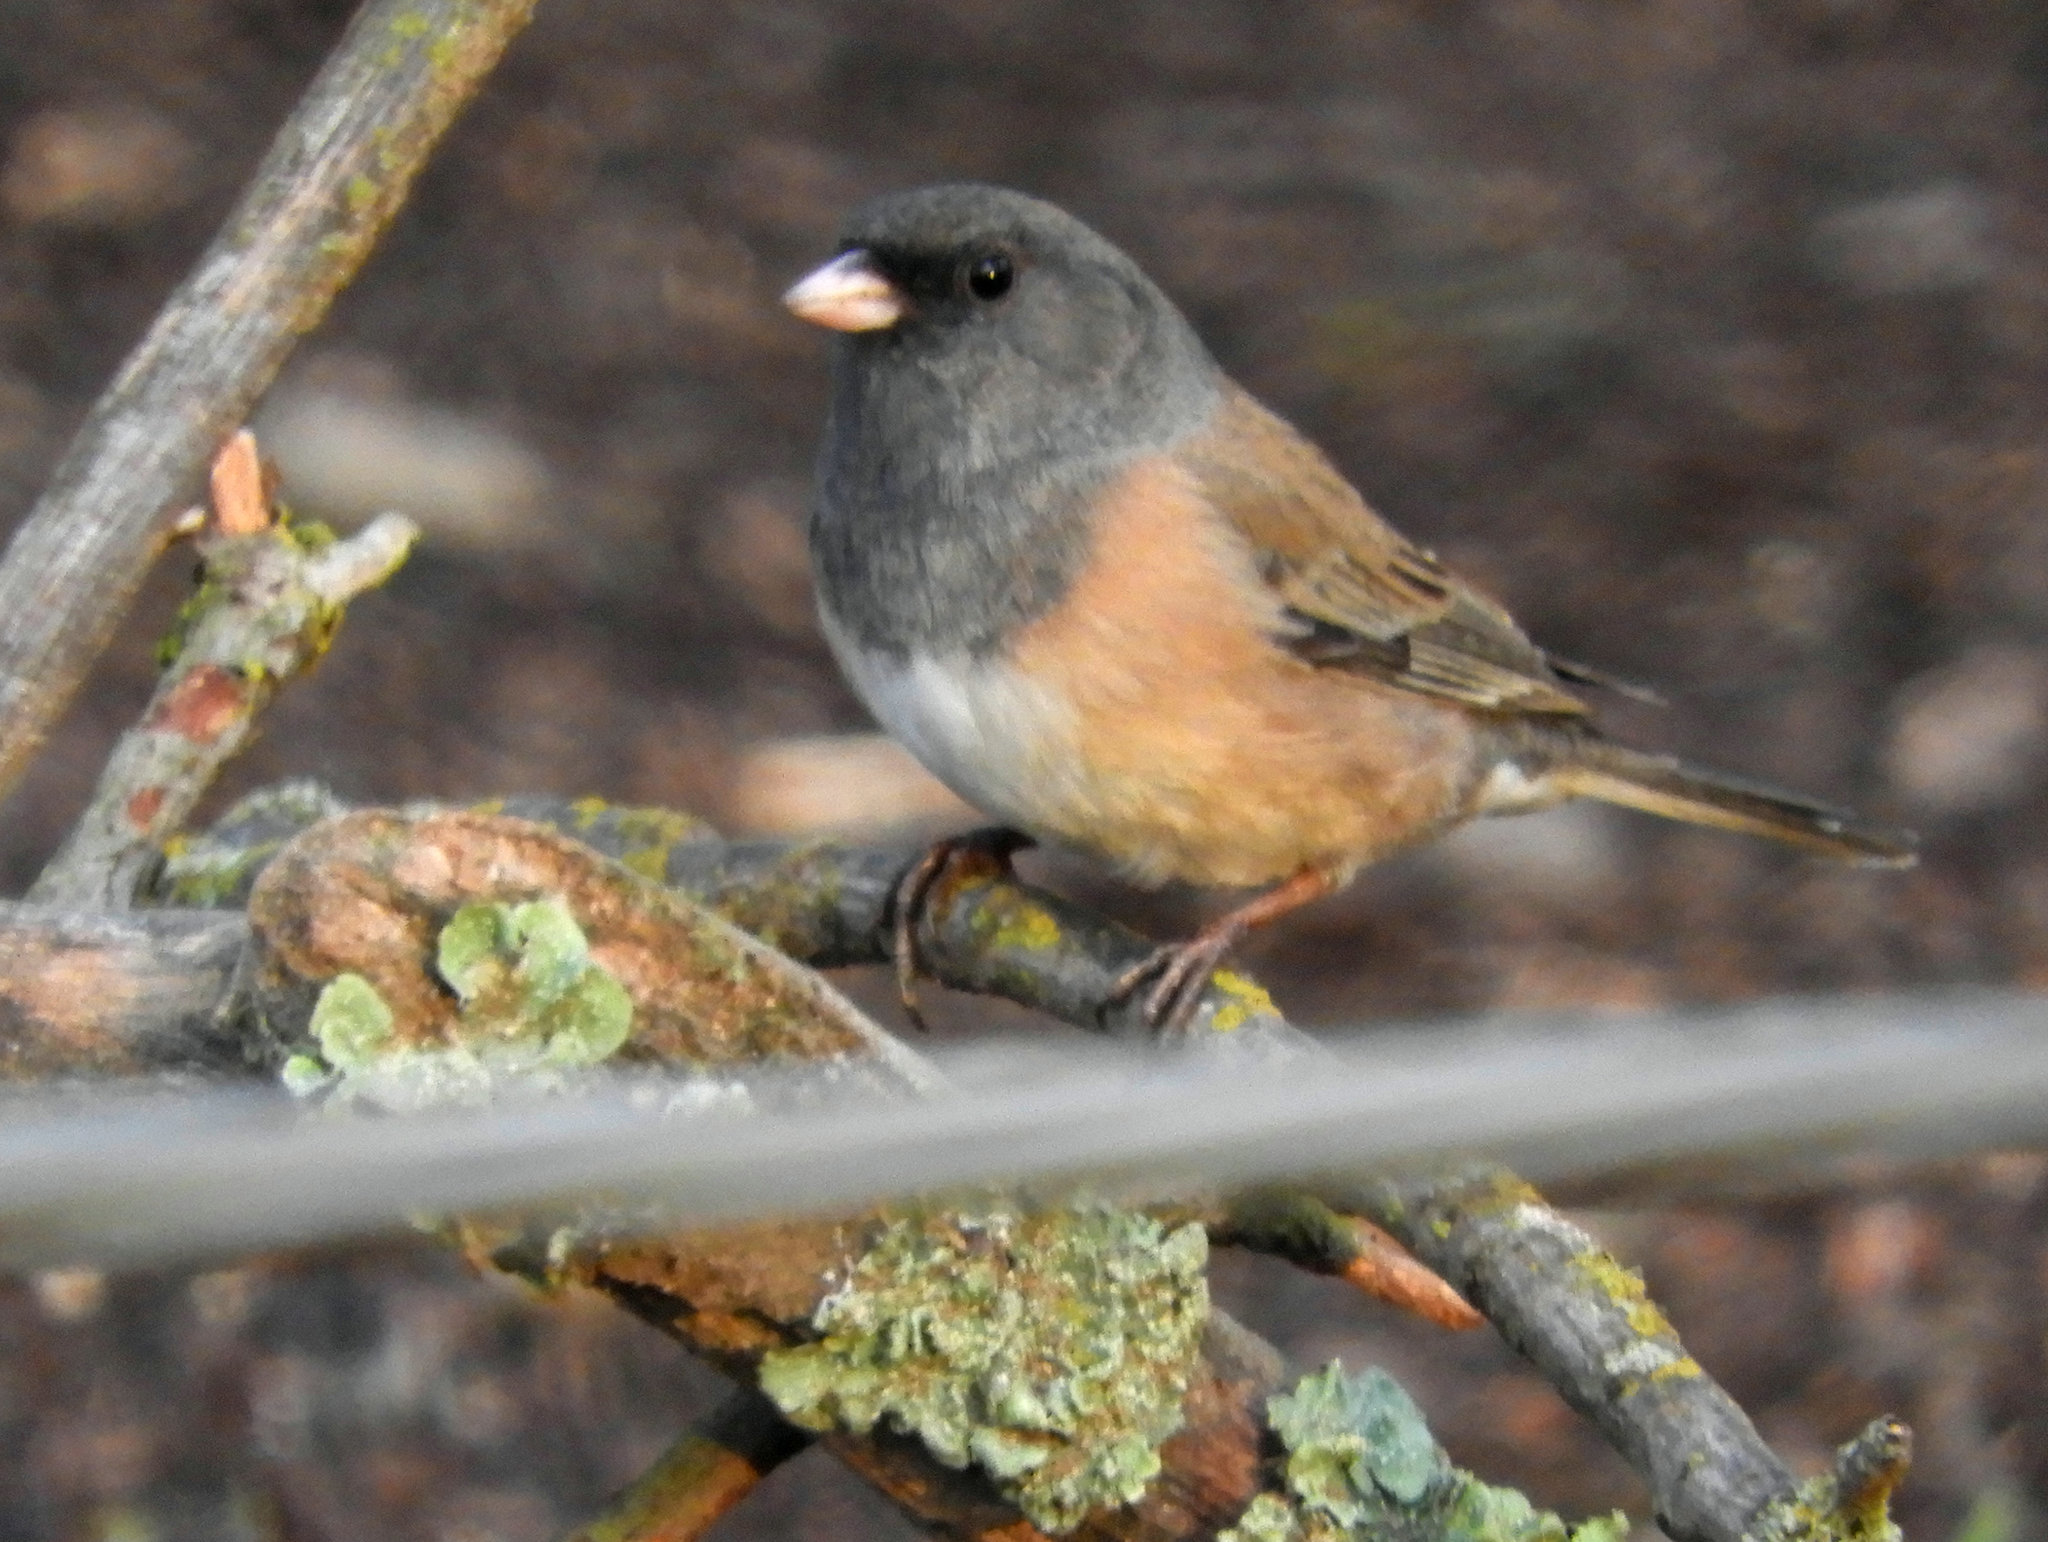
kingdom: Animalia
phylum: Chordata
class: Aves
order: Passeriformes
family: Passerellidae
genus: Junco
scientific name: Junco hyemalis
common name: Dark-eyed junco
